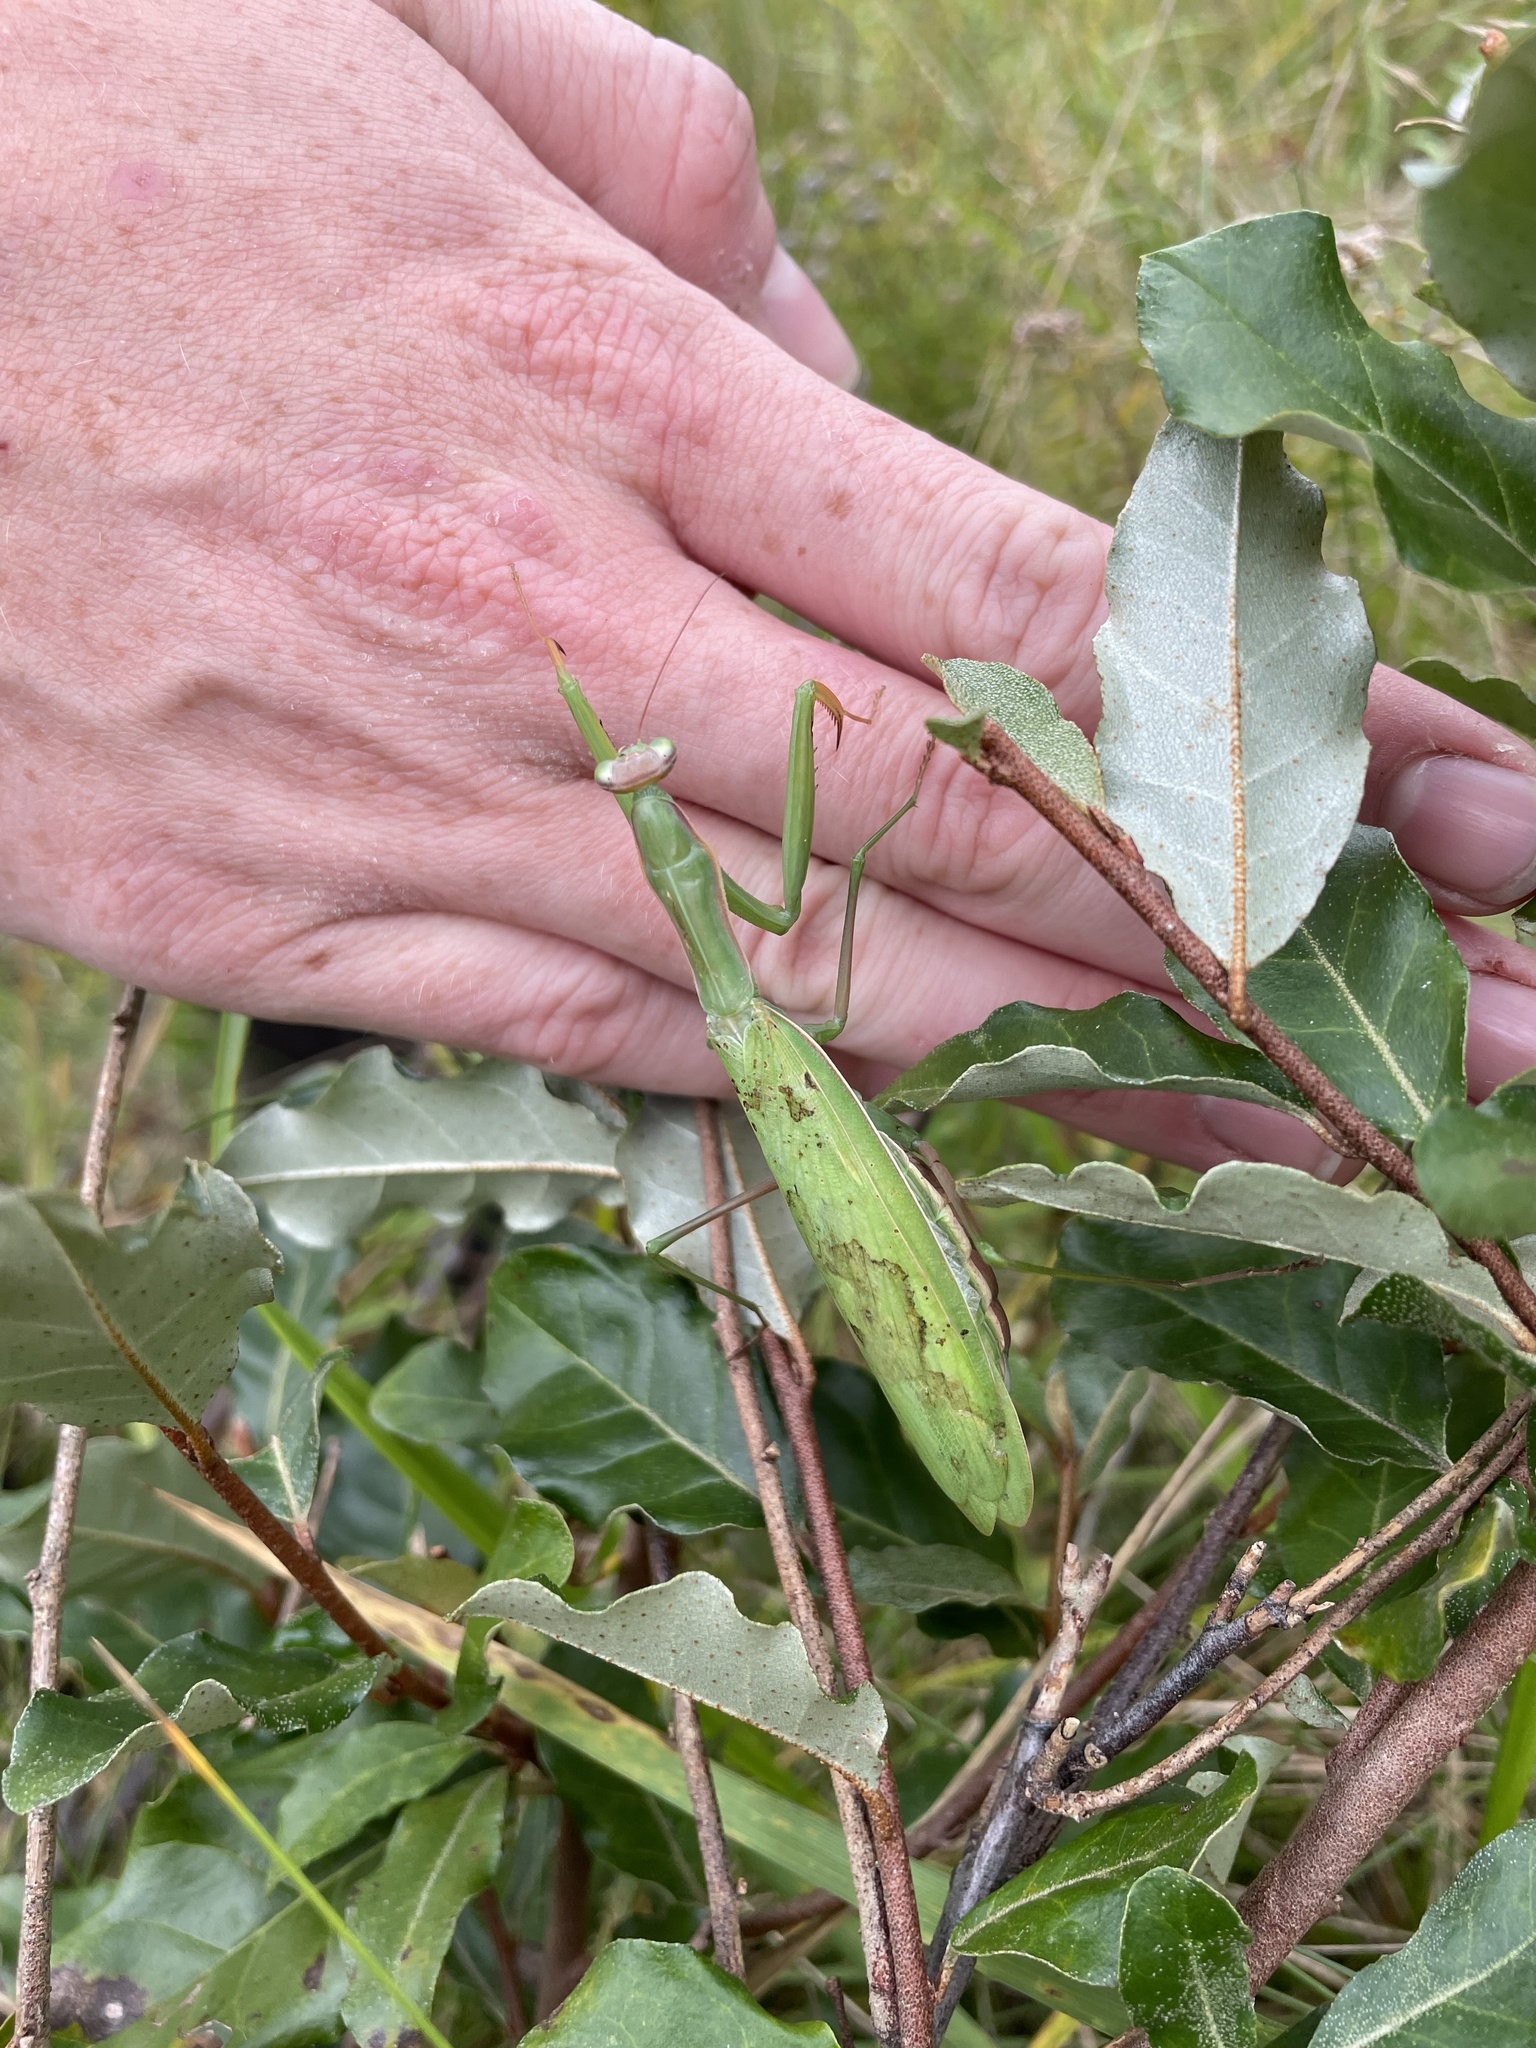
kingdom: Animalia
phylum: Arthropoda
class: Insecta
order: Mantodea
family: Mantidae
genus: Mantis
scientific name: Mantis religiosa
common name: Praying mantis
